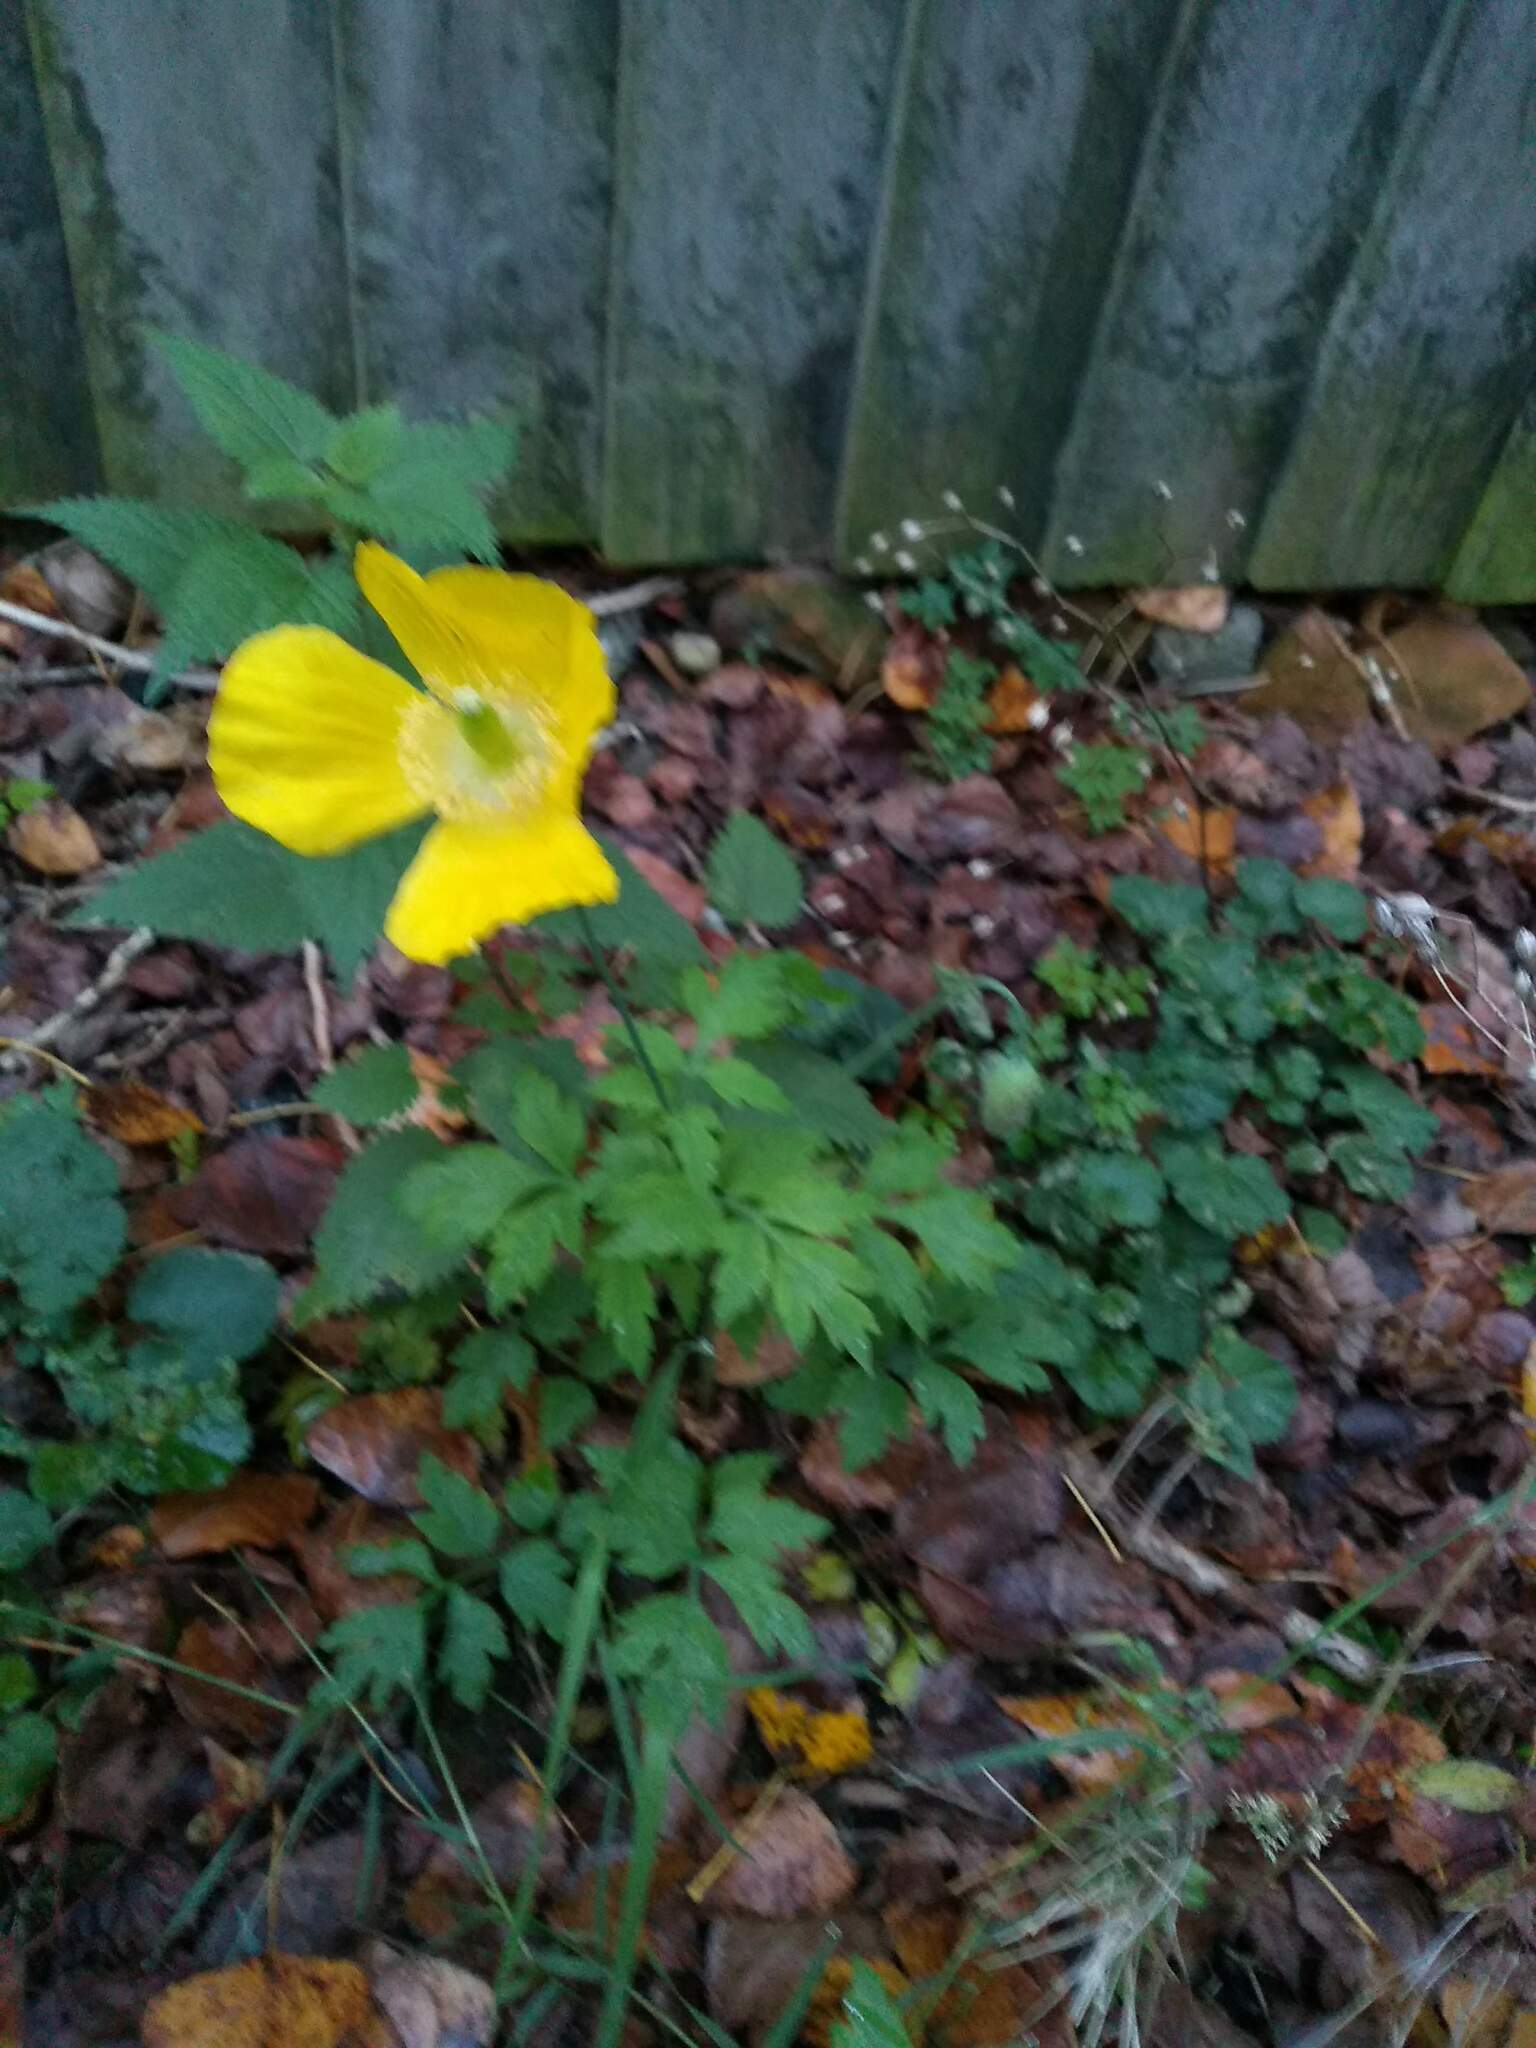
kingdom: Plantae
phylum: Tracheophyta
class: Magnoliopsida
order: Ranunculales
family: Papaveraceae
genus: Papaver
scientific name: Papaver cambricum
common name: Poppy
